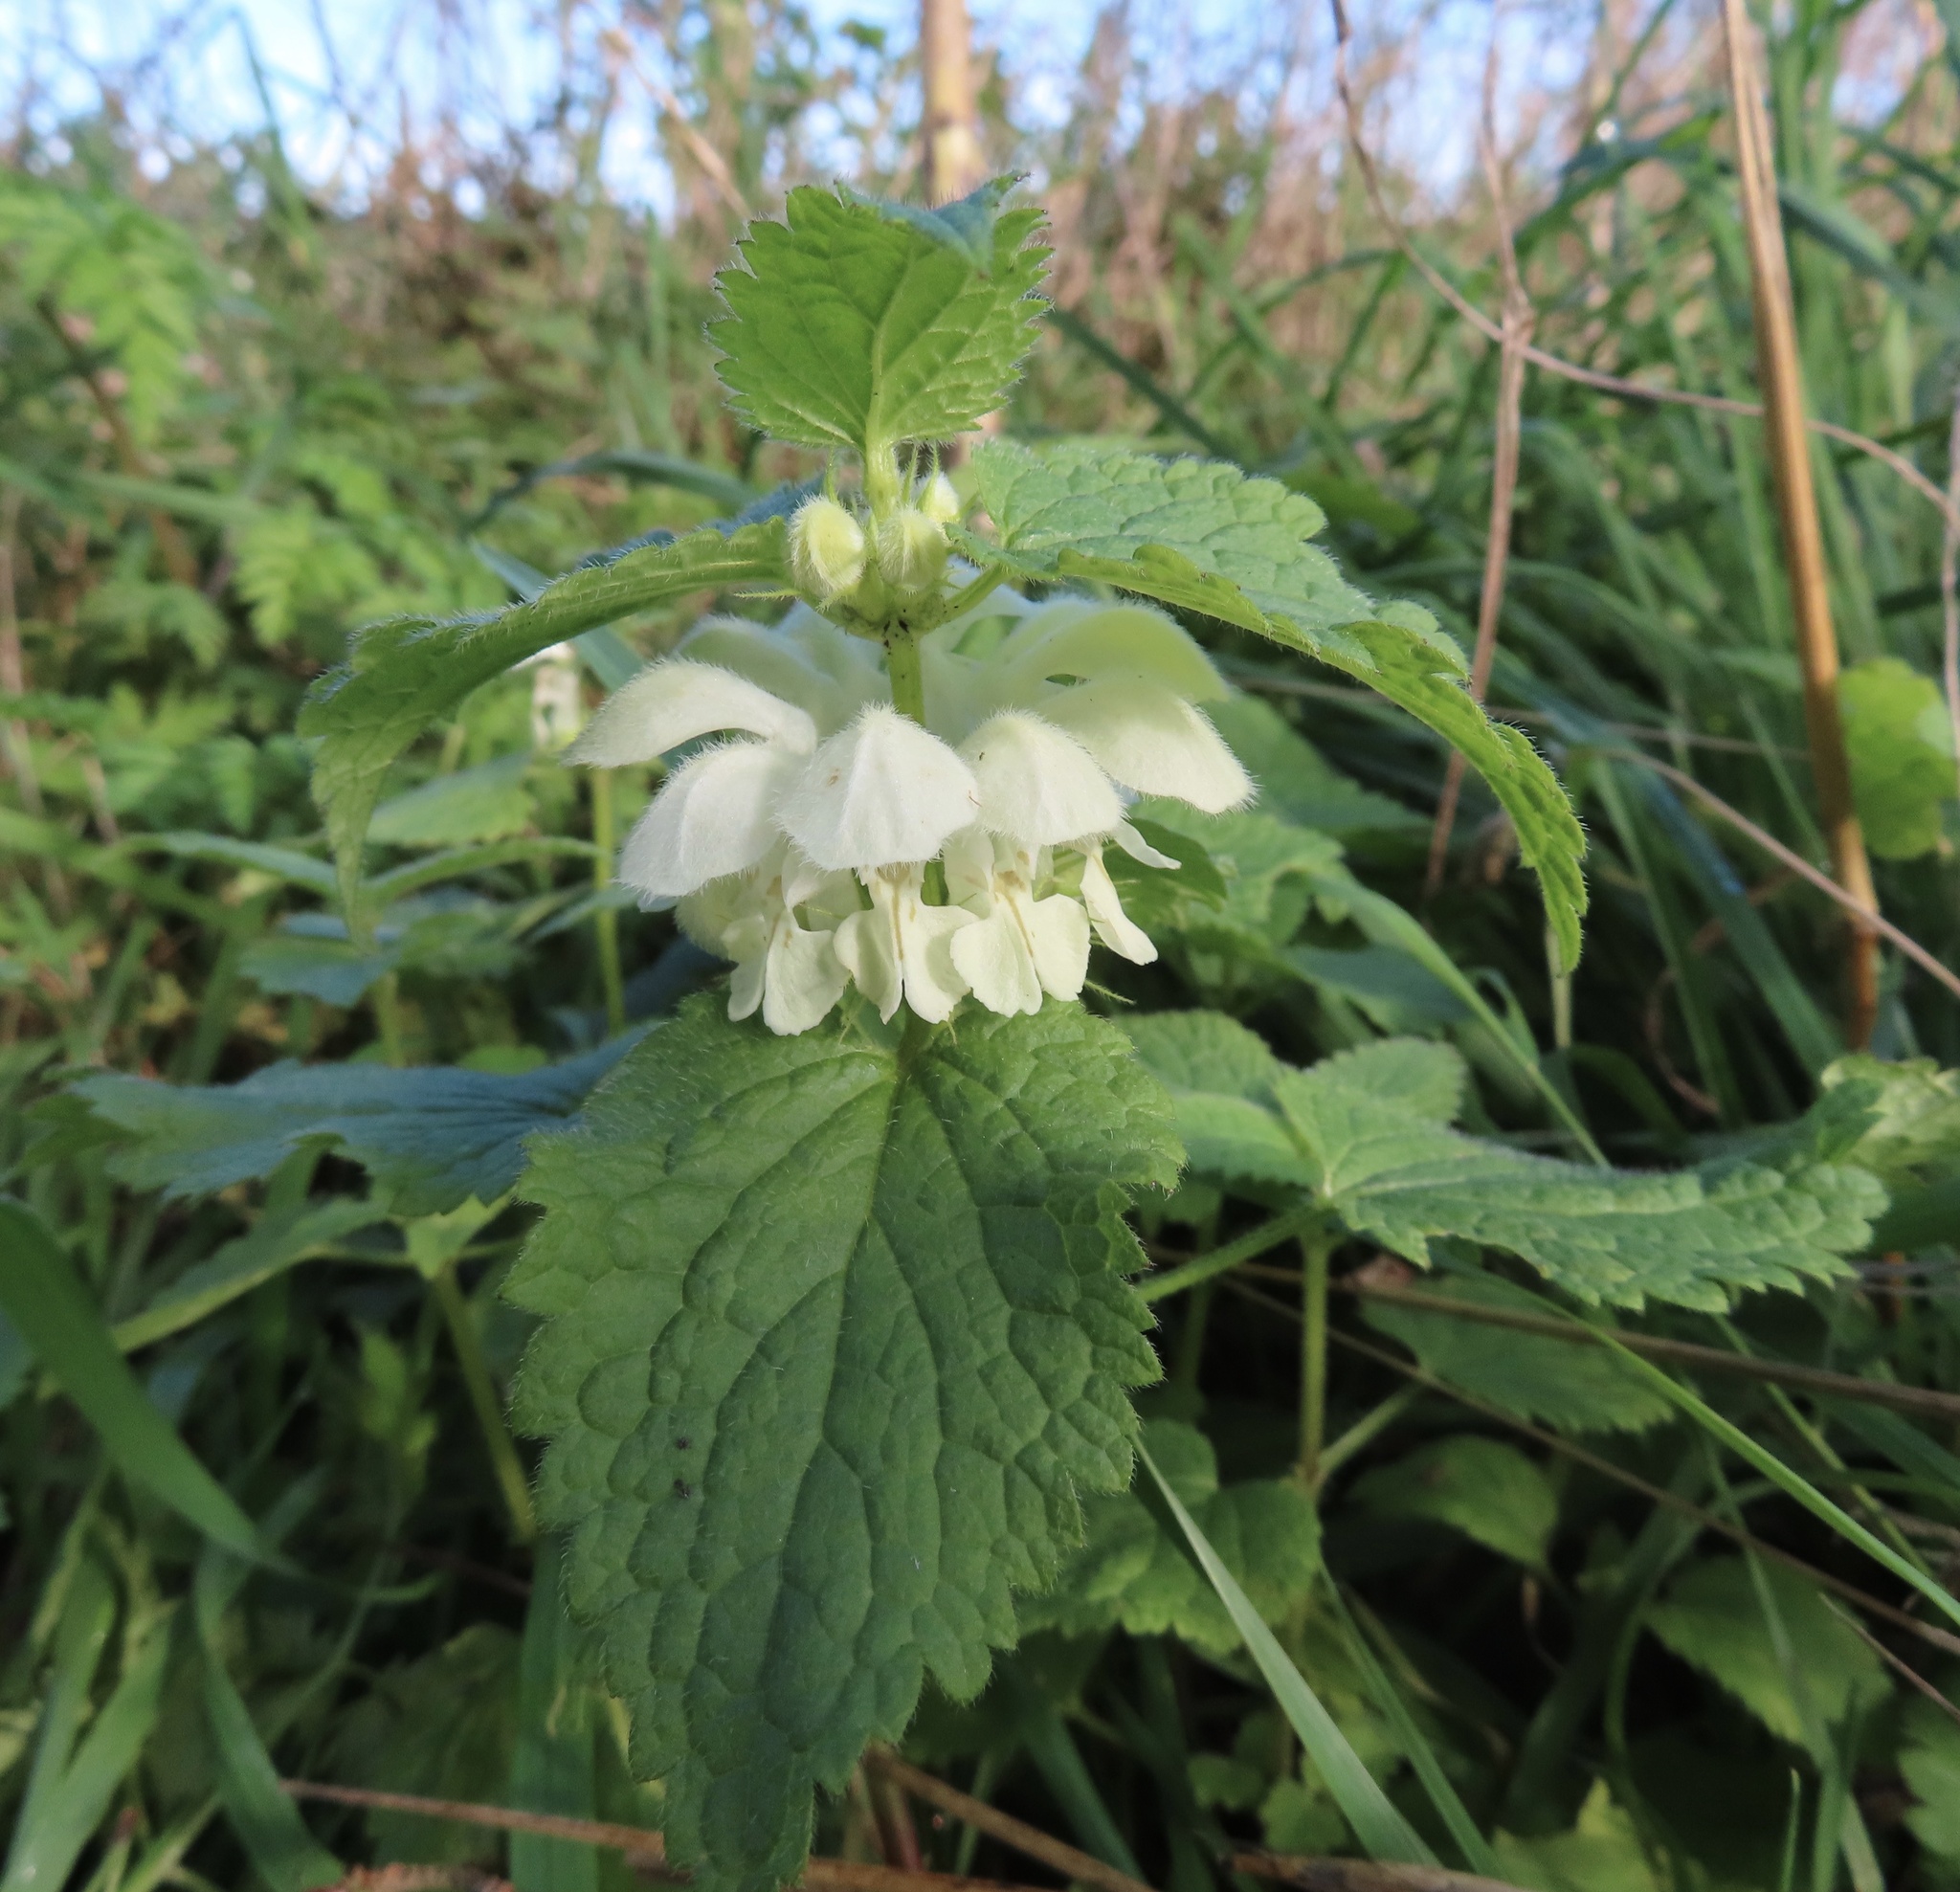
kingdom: Plantae
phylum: Tracheophyta
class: Magnoliopsida
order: Lamiales
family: Lamiaceae
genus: Lamium
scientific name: Lamium album
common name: White dead-nettle
